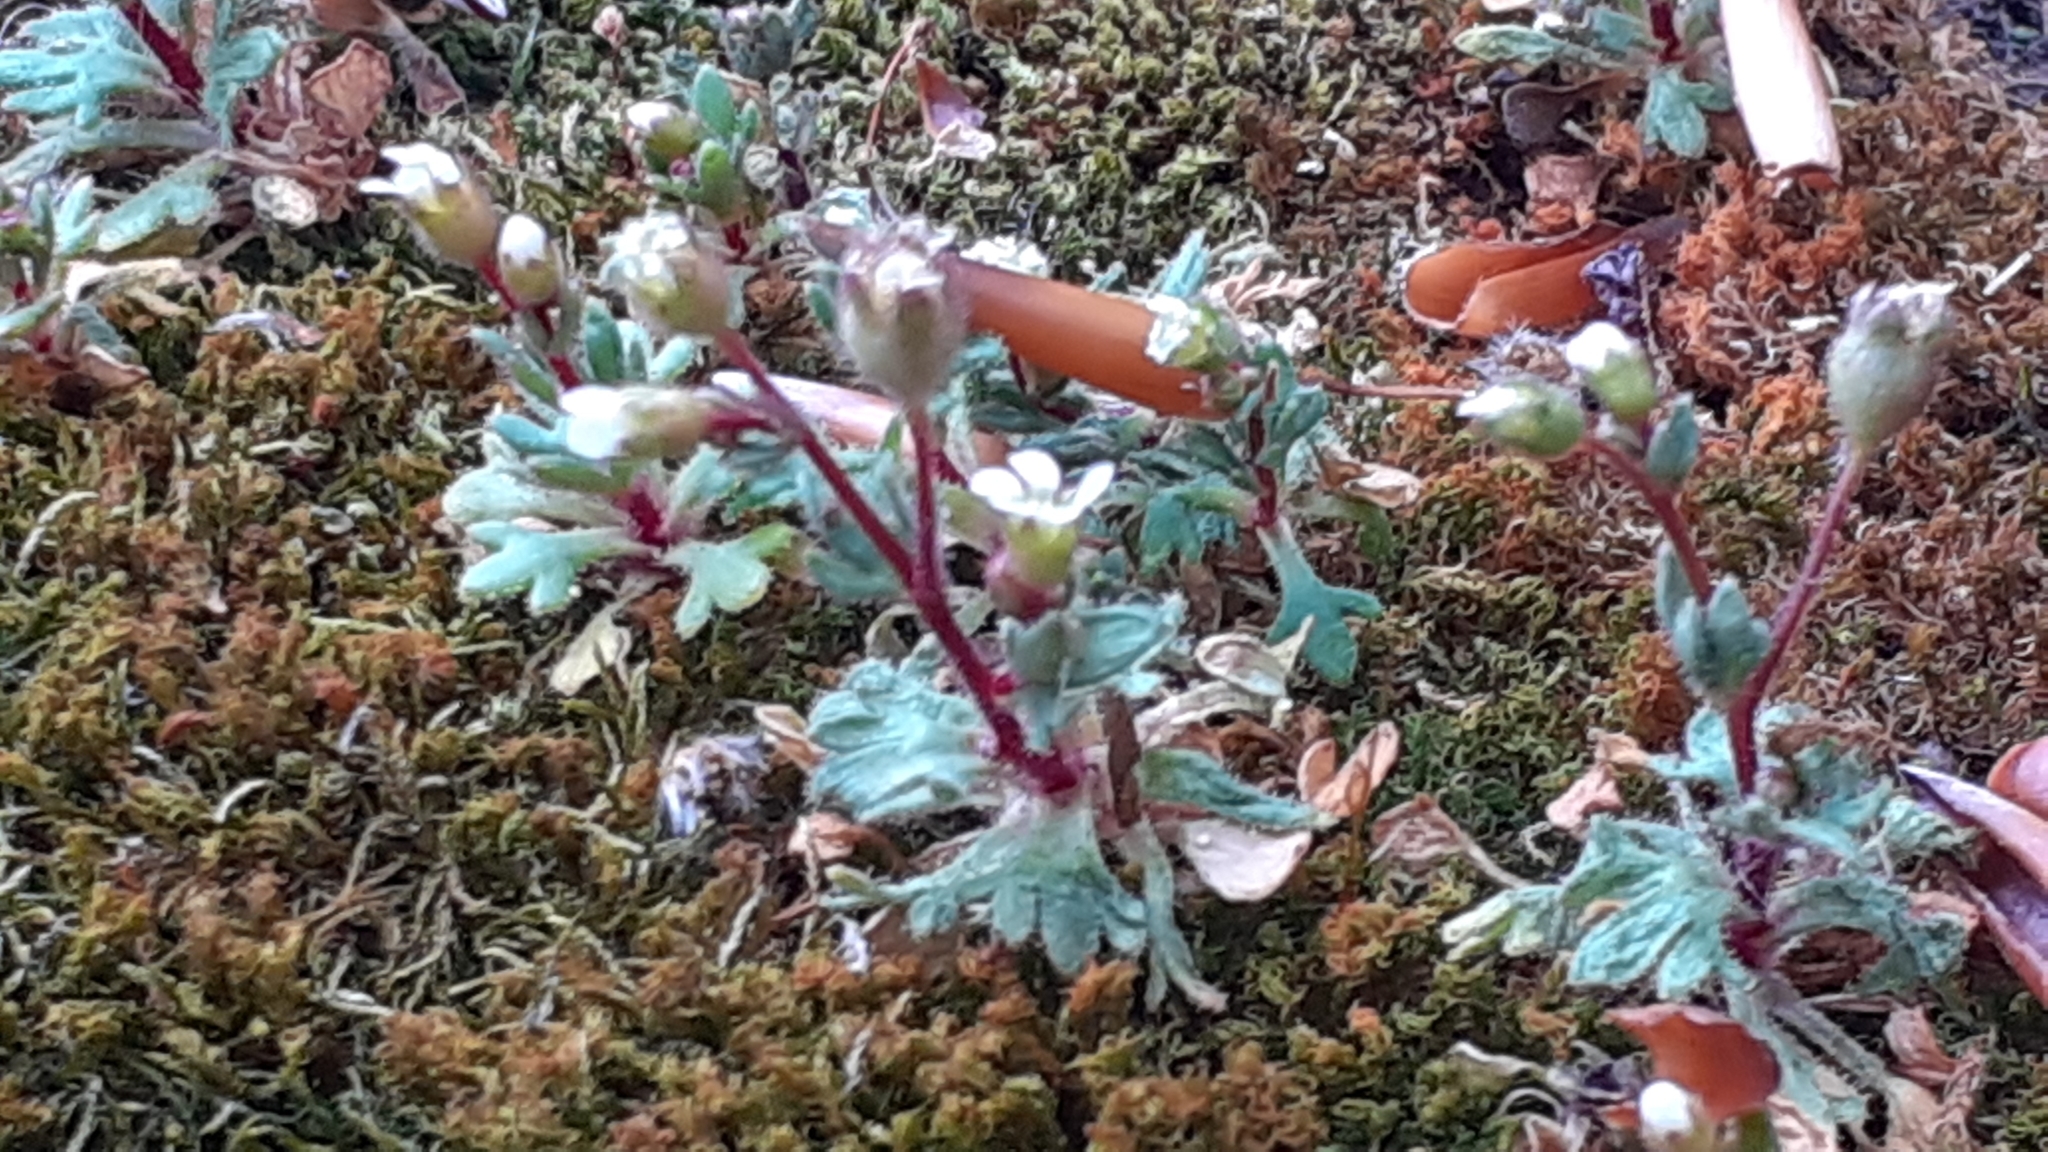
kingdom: Plantae
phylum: Tracheophyta
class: Magnoliopsida
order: Saxifragales
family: Saxifragaceae
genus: Saxifraga
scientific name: Saxifraga tridactylites
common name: Rue-leaved saxifrage
